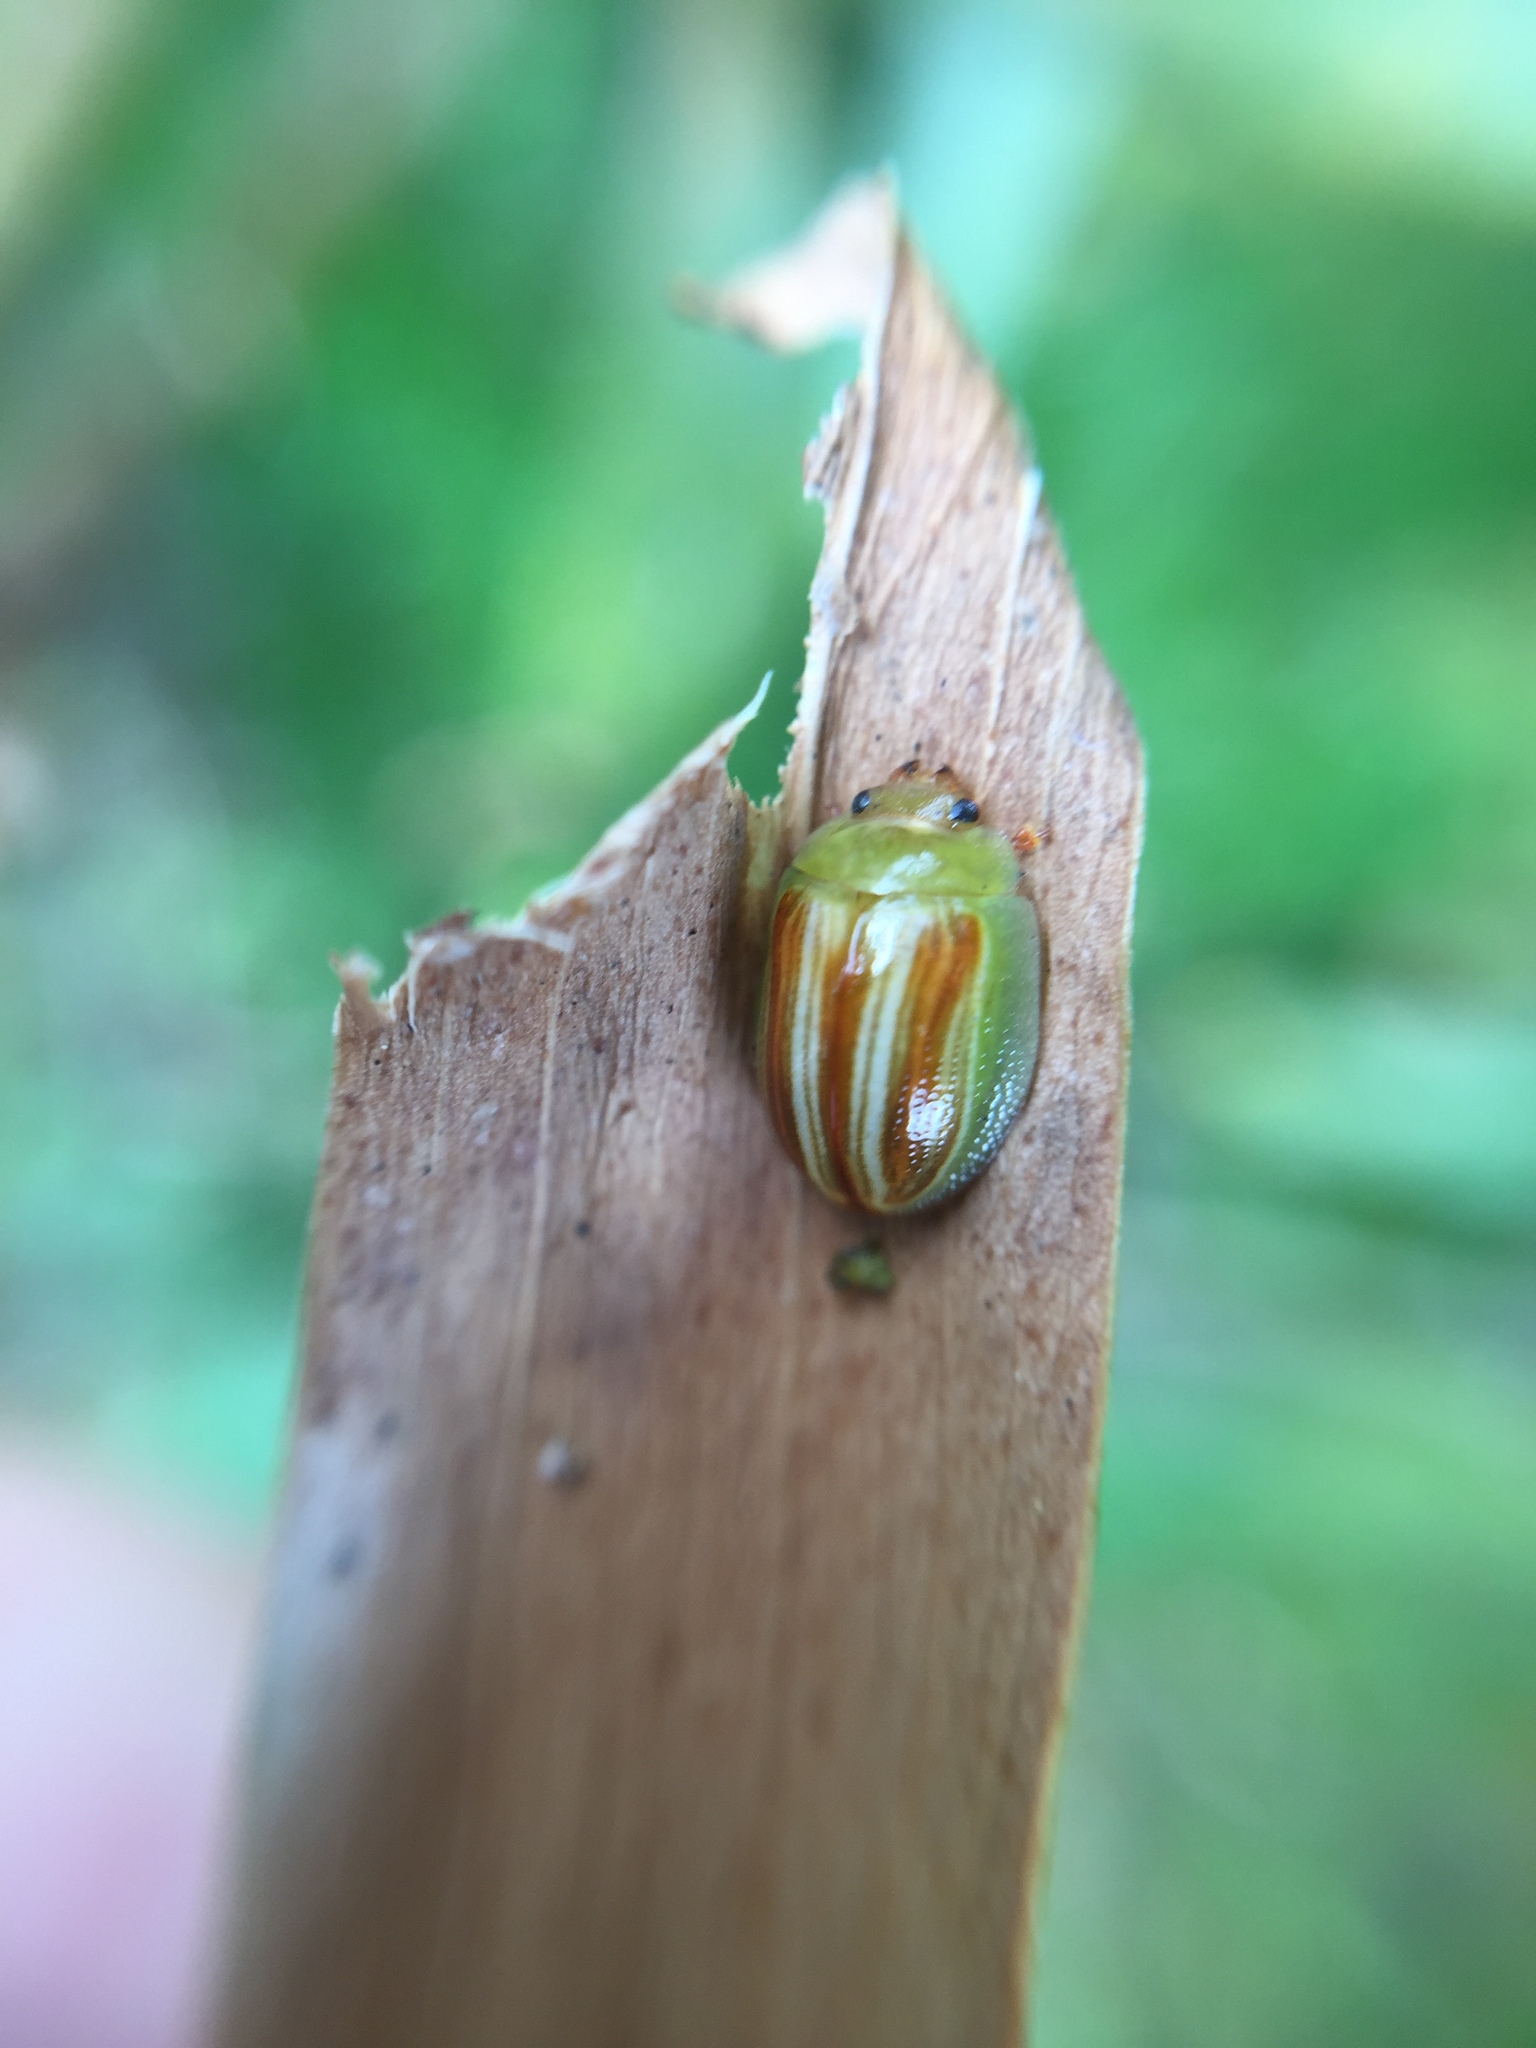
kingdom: Animalia
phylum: Arthropoda
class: Insecta
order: Coleoptera
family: Chrysomelidae
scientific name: Chrysomelidae
